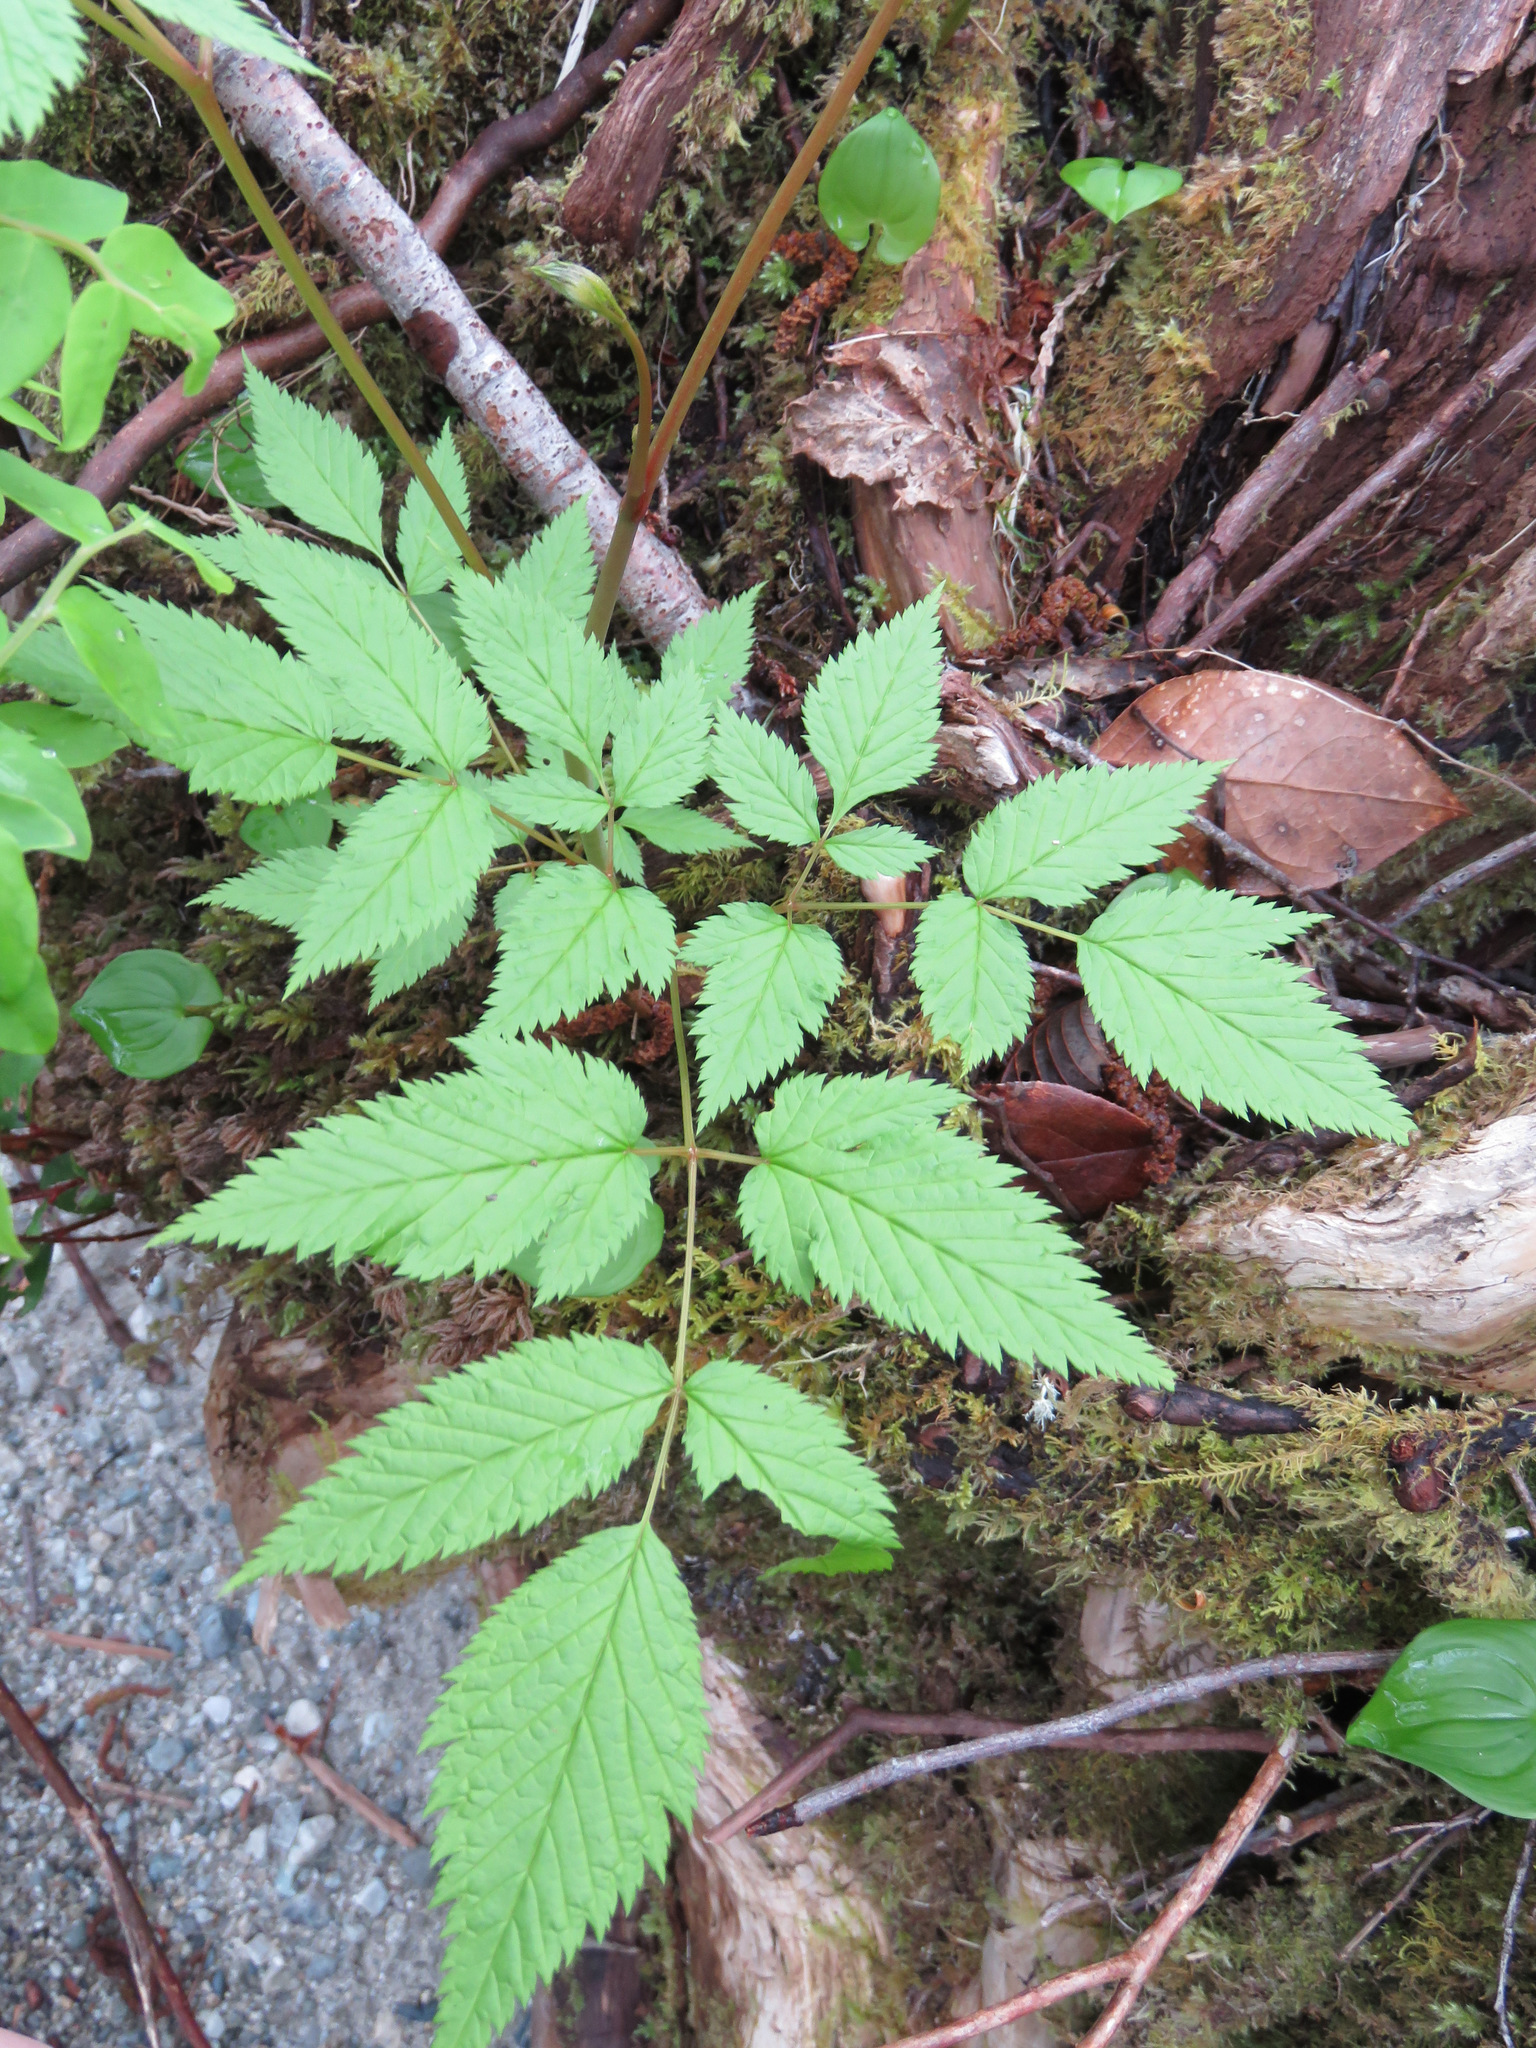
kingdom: Plantae
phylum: Tracheophyta
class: Magnoliopsida
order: Rosales
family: Rosaceae
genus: Aruncus
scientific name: Aruncus dioicus
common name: Buck's-beard
